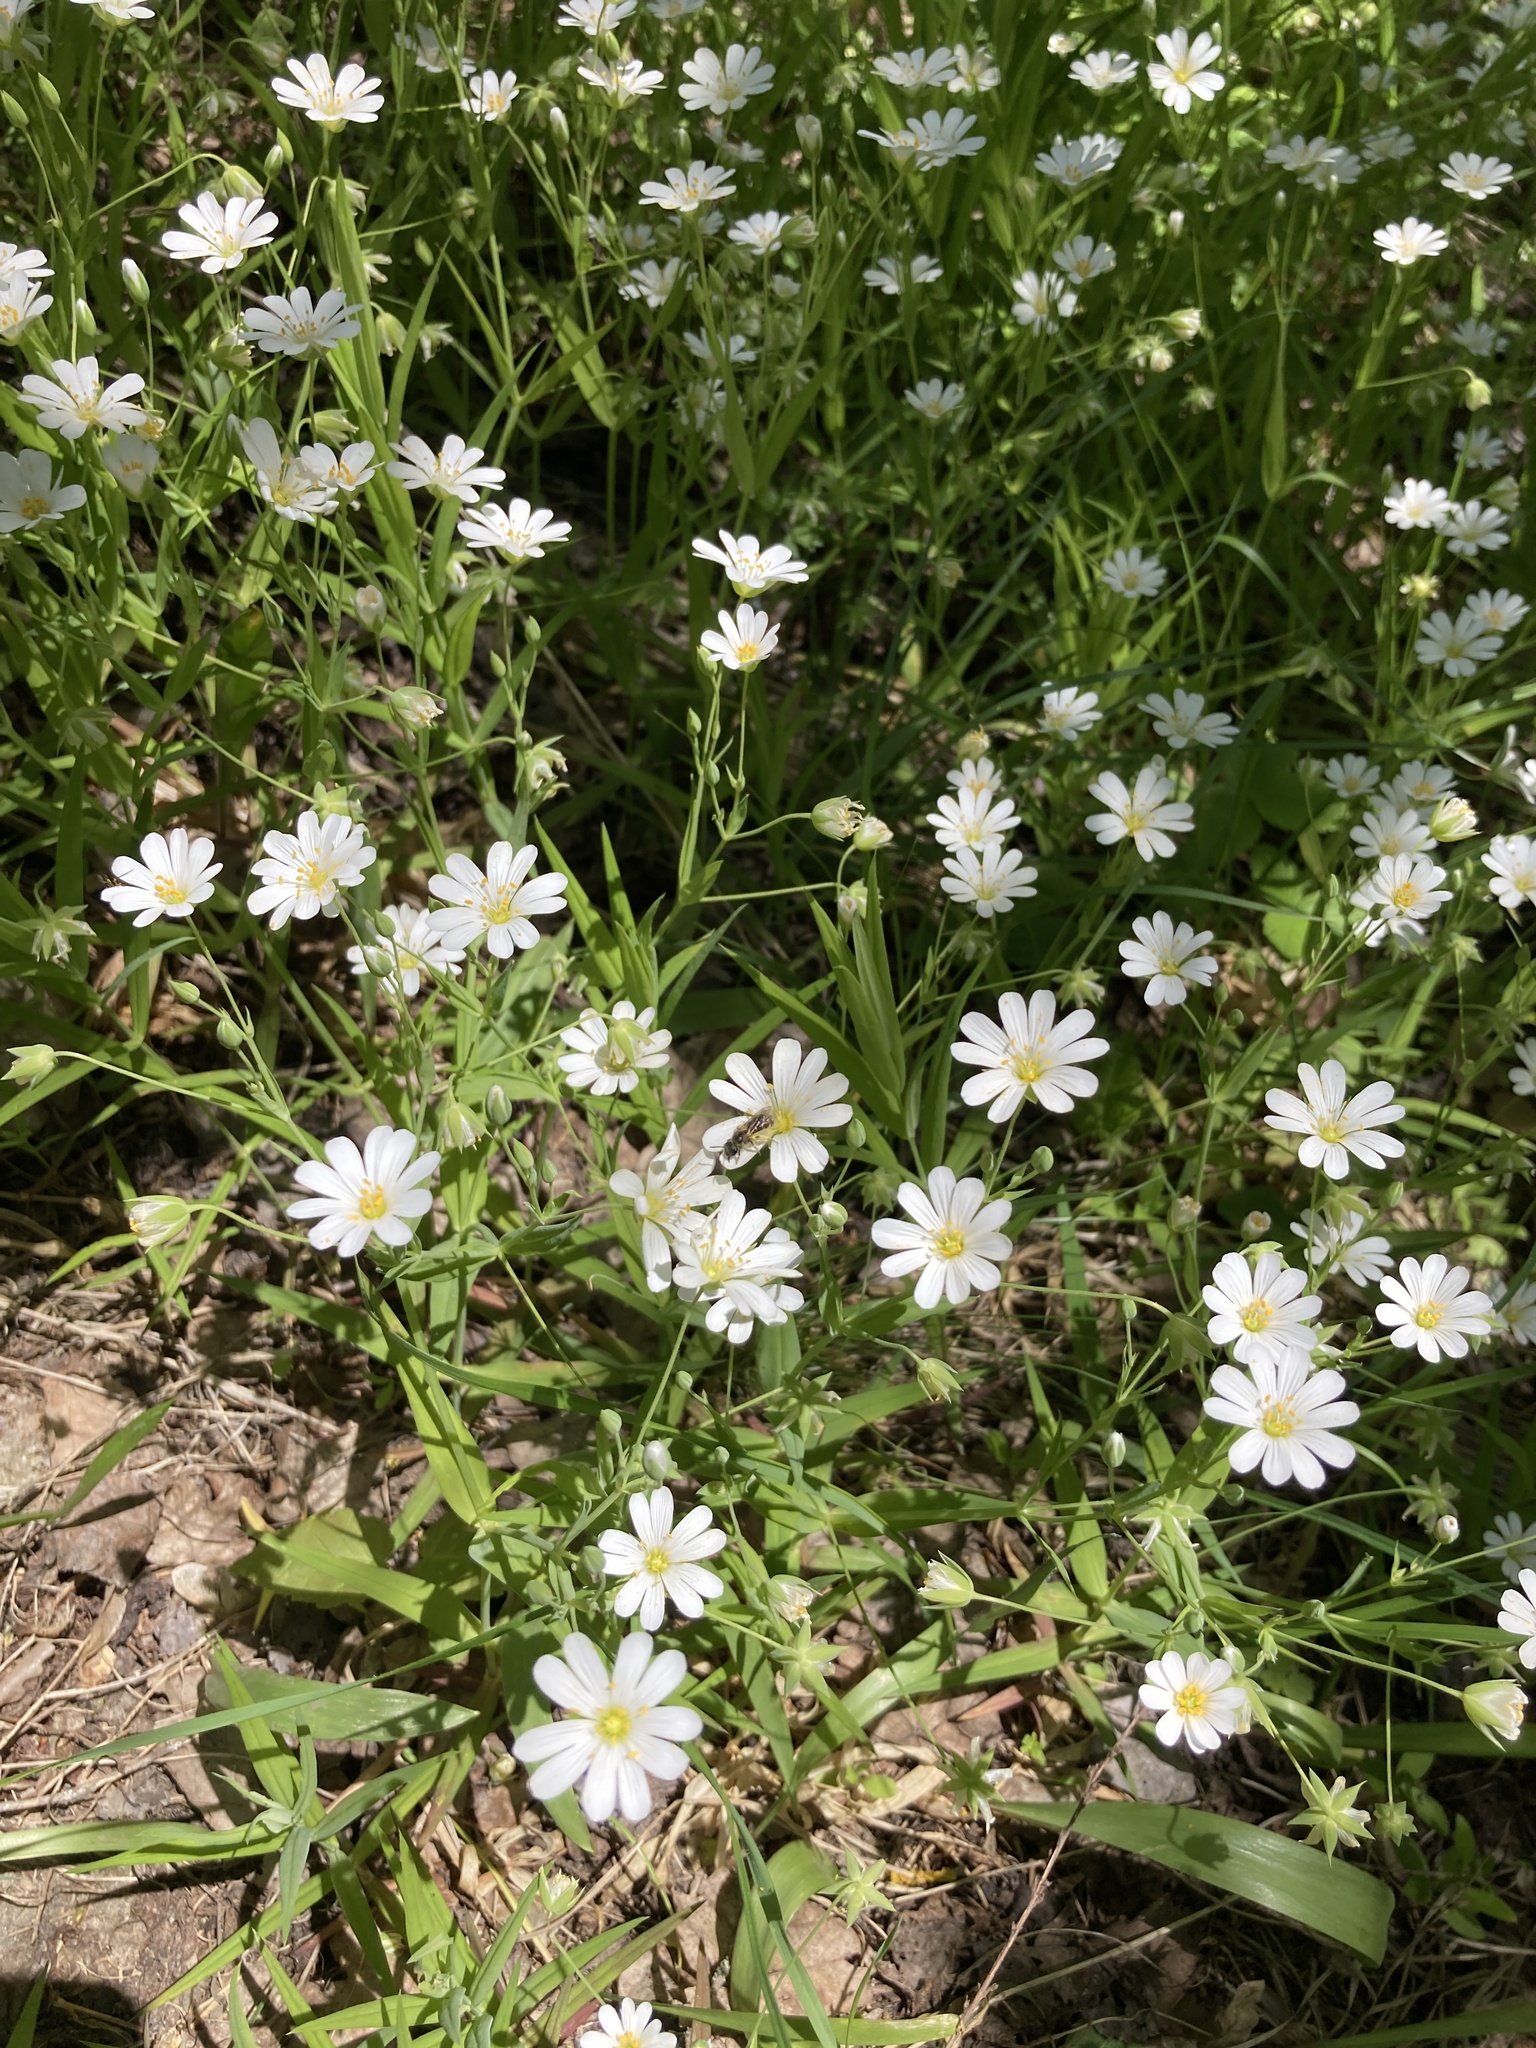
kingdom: Plantae
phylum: Tracheophyta
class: Magnoliopsida
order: Caryophyllales
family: Caryophyllaceae
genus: Rabelera
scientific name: Rabelera holostea
